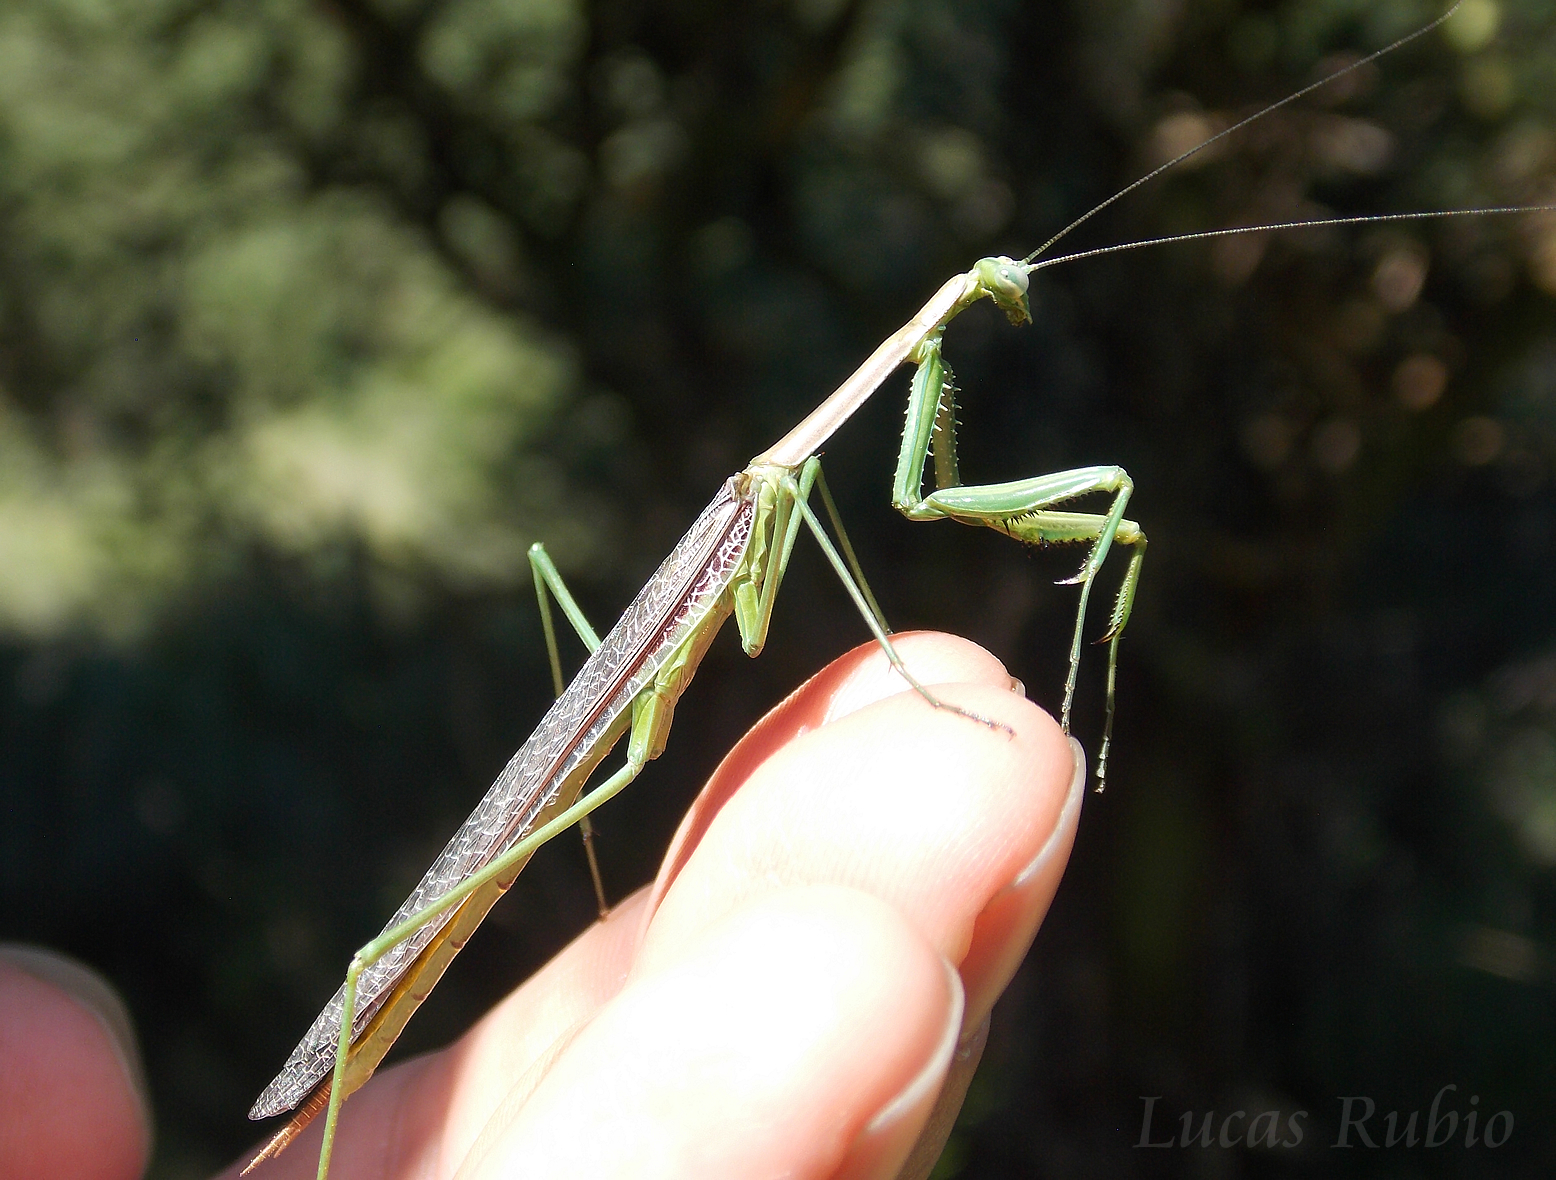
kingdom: Animalia
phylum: Arthropoda
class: Insecta
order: Mantodea
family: Coptopterygidae
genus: Coptopteryx
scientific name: Coptopteryx gayi
